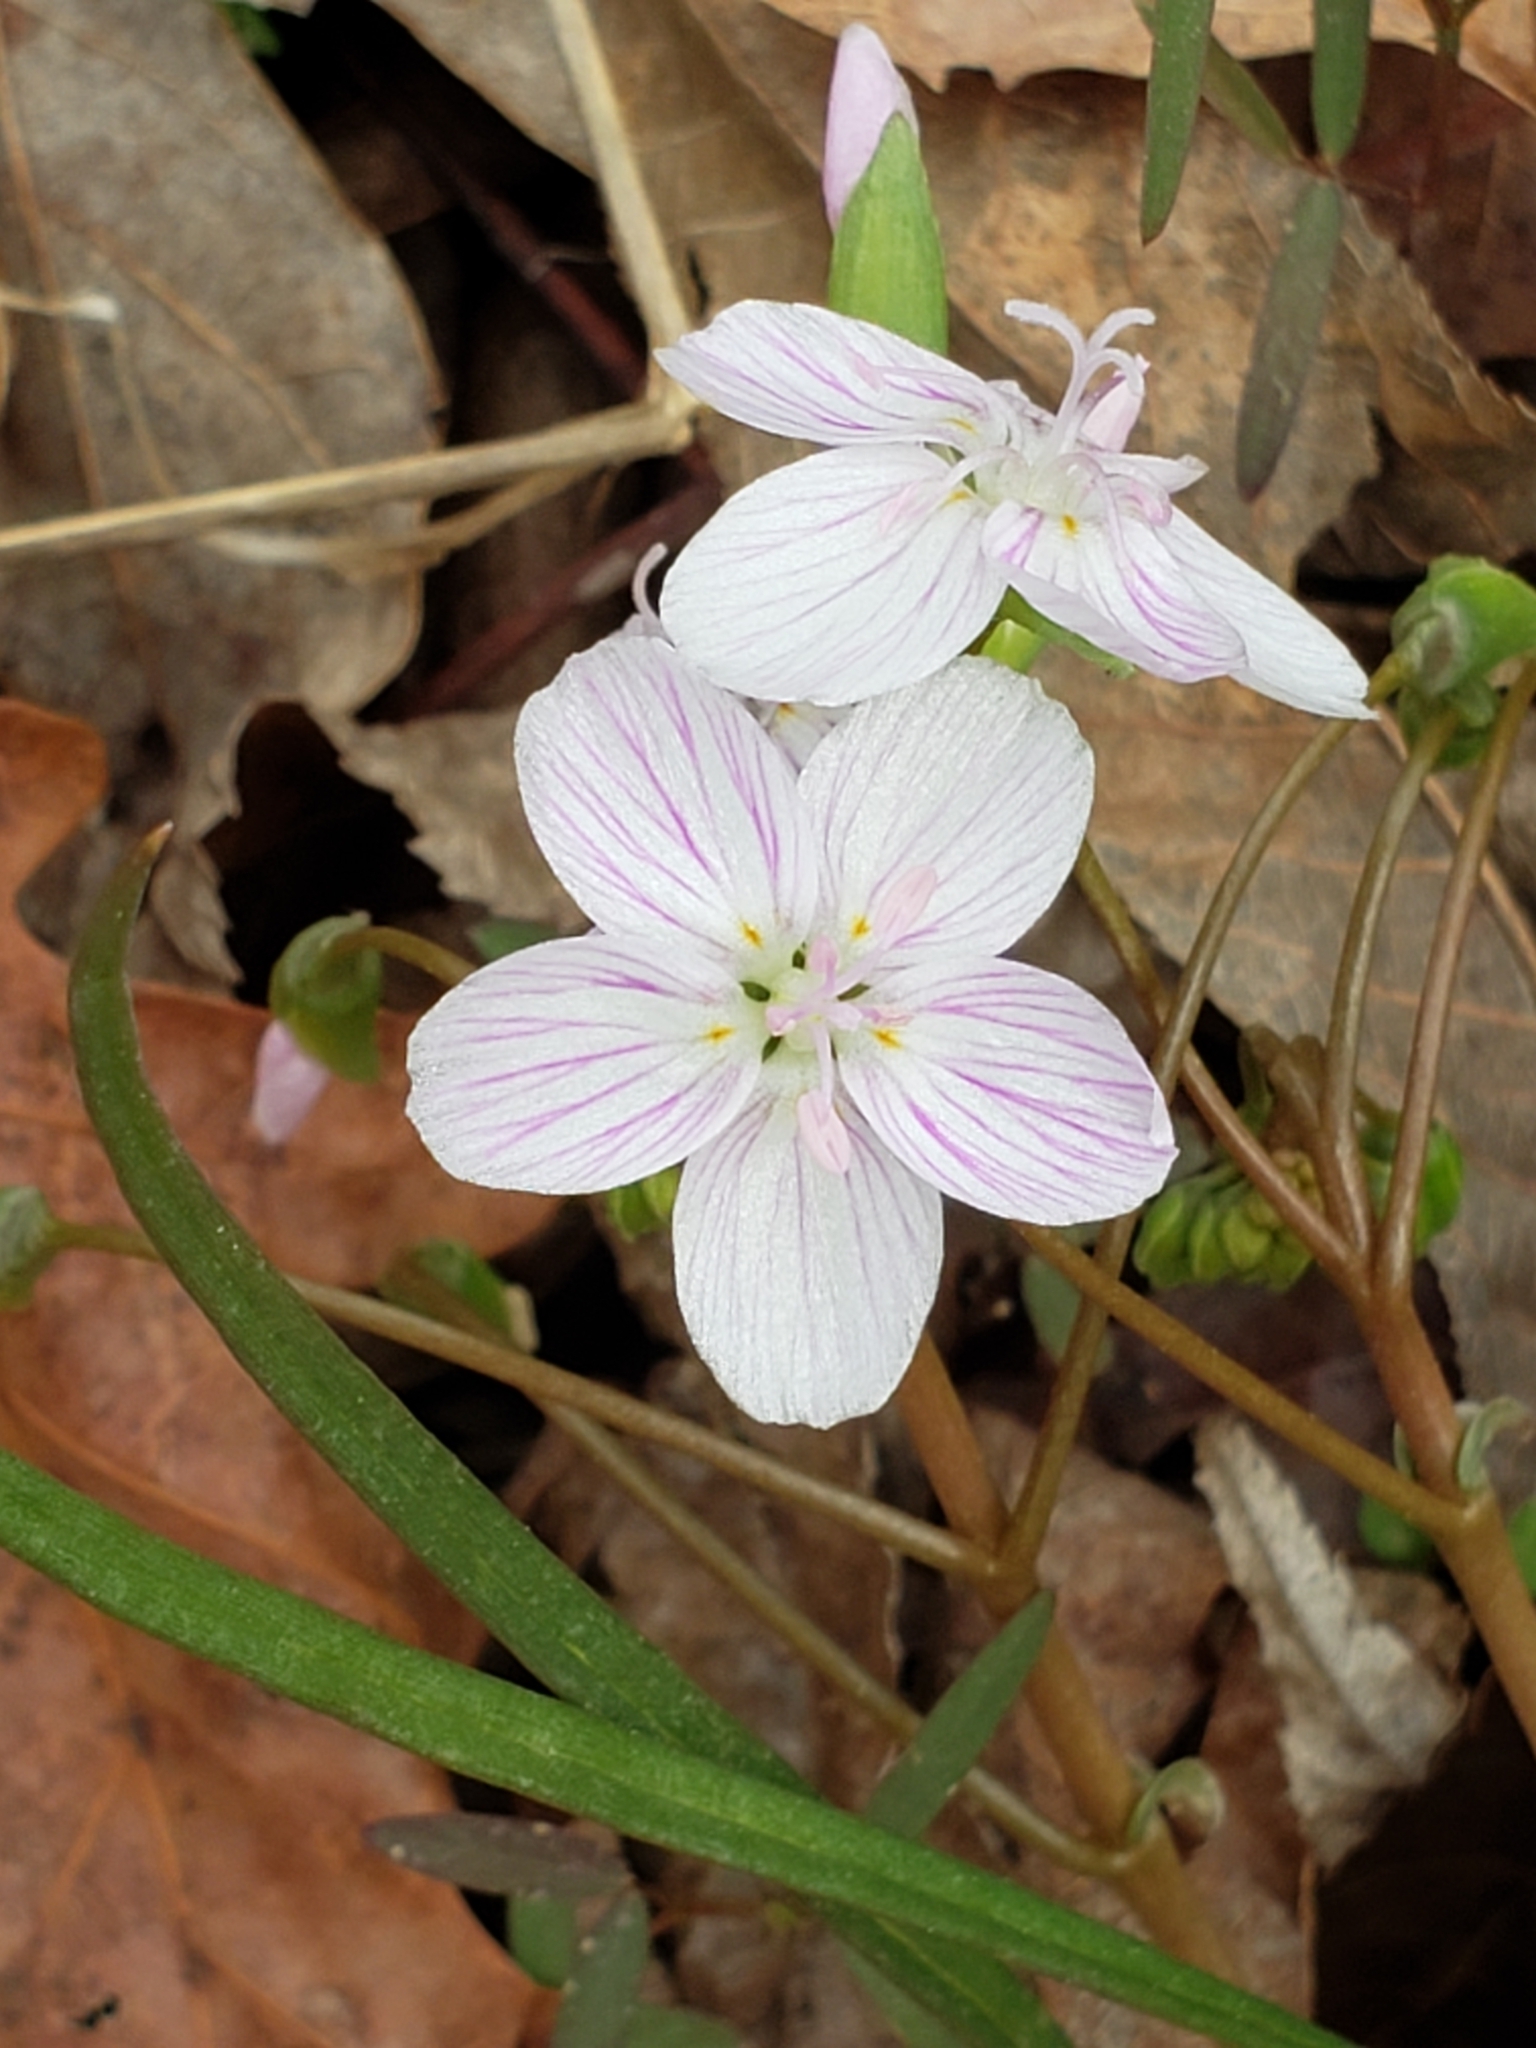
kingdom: Plantae
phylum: Tracheophyta
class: Magnoliopsida
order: Caryophyllales
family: Montiaceae
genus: Claytonia
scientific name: Claytonia virginica
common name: Virginia springbeauty
